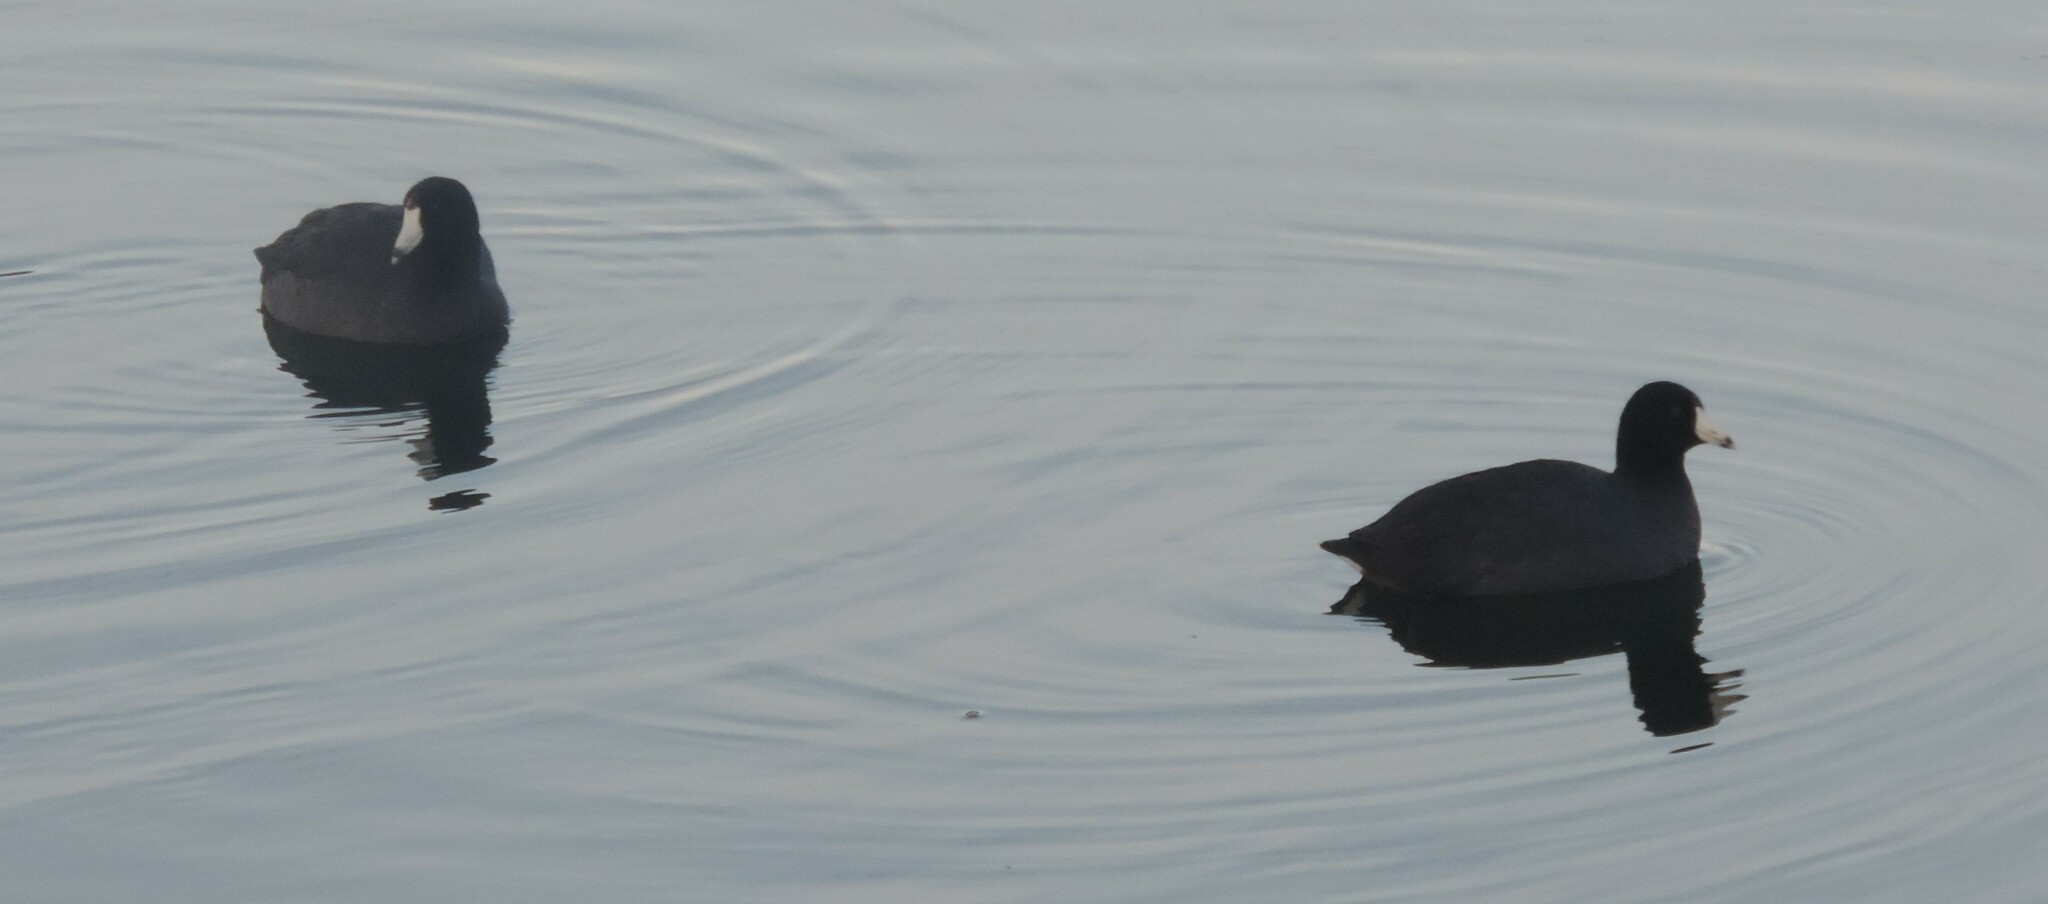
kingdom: Animalia
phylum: Chordata
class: Aves
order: Gruiformes
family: Rallidae
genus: Fulica
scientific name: Fulica americana
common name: American coot
